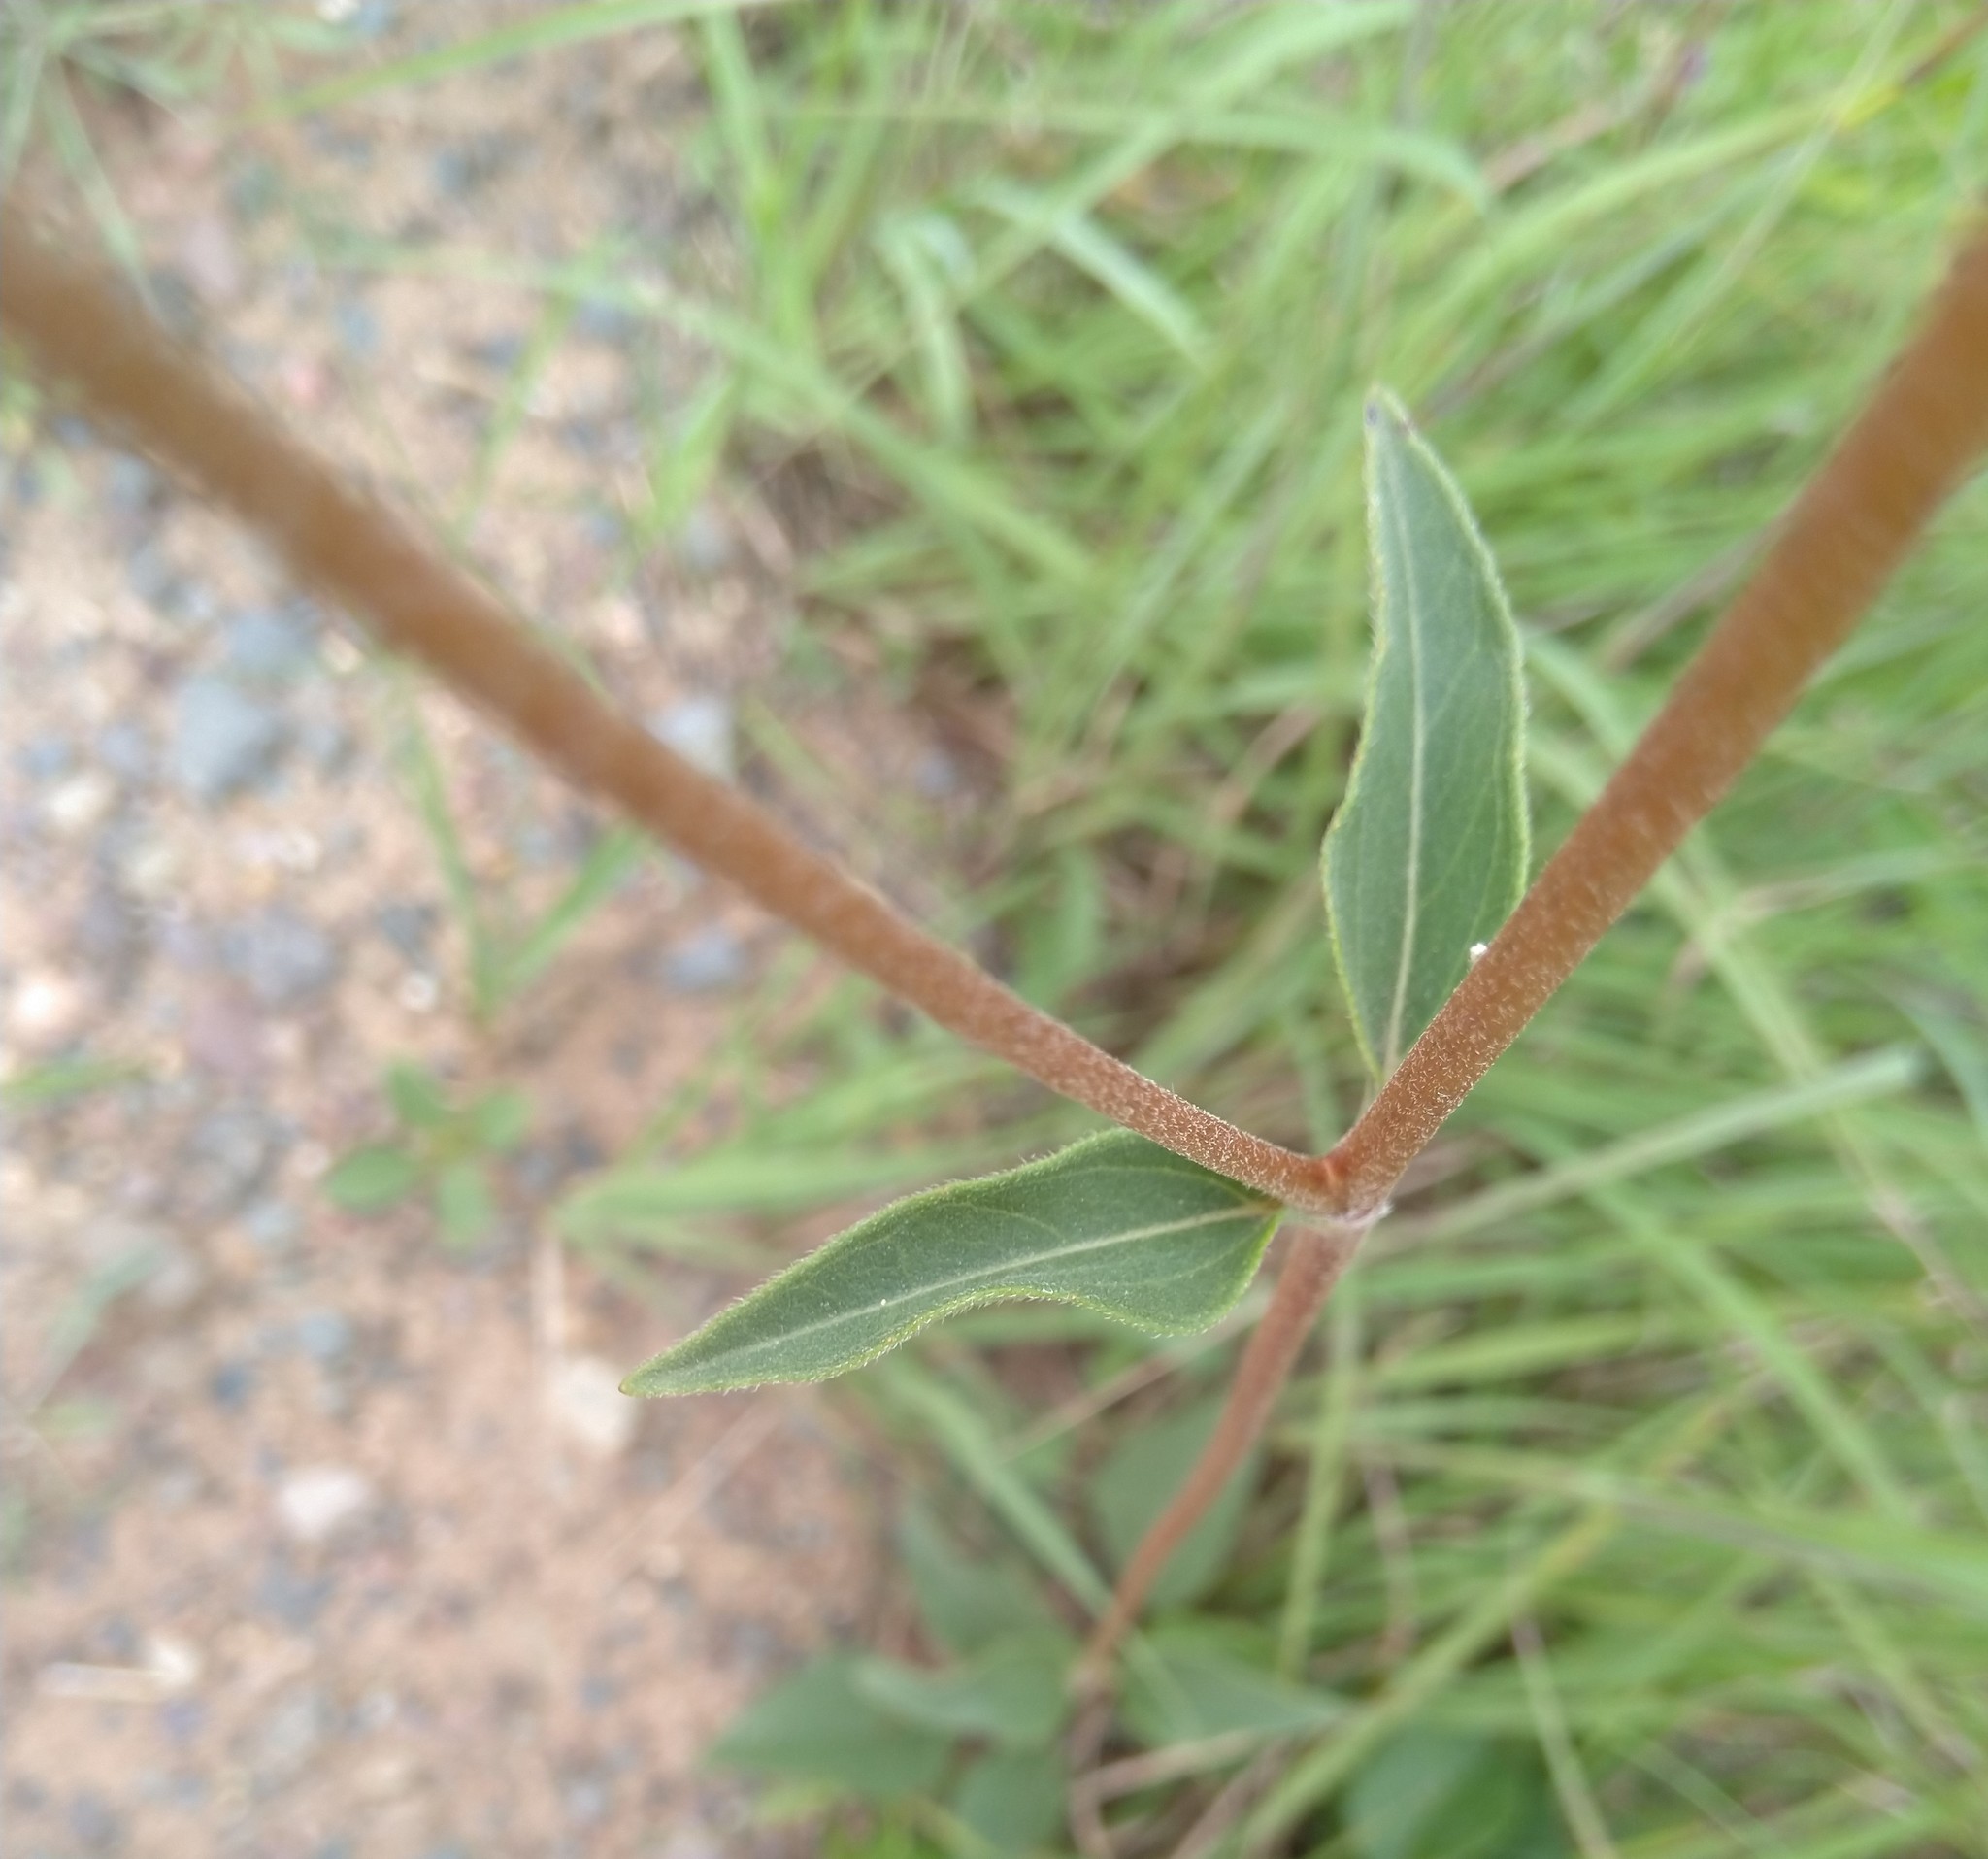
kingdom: Plantae
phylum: Tracheophyta
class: Magnoliopsida
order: Asterales
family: Asteraceae
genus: Helianthus
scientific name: Helianthus occidentalis
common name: Western sunflower
